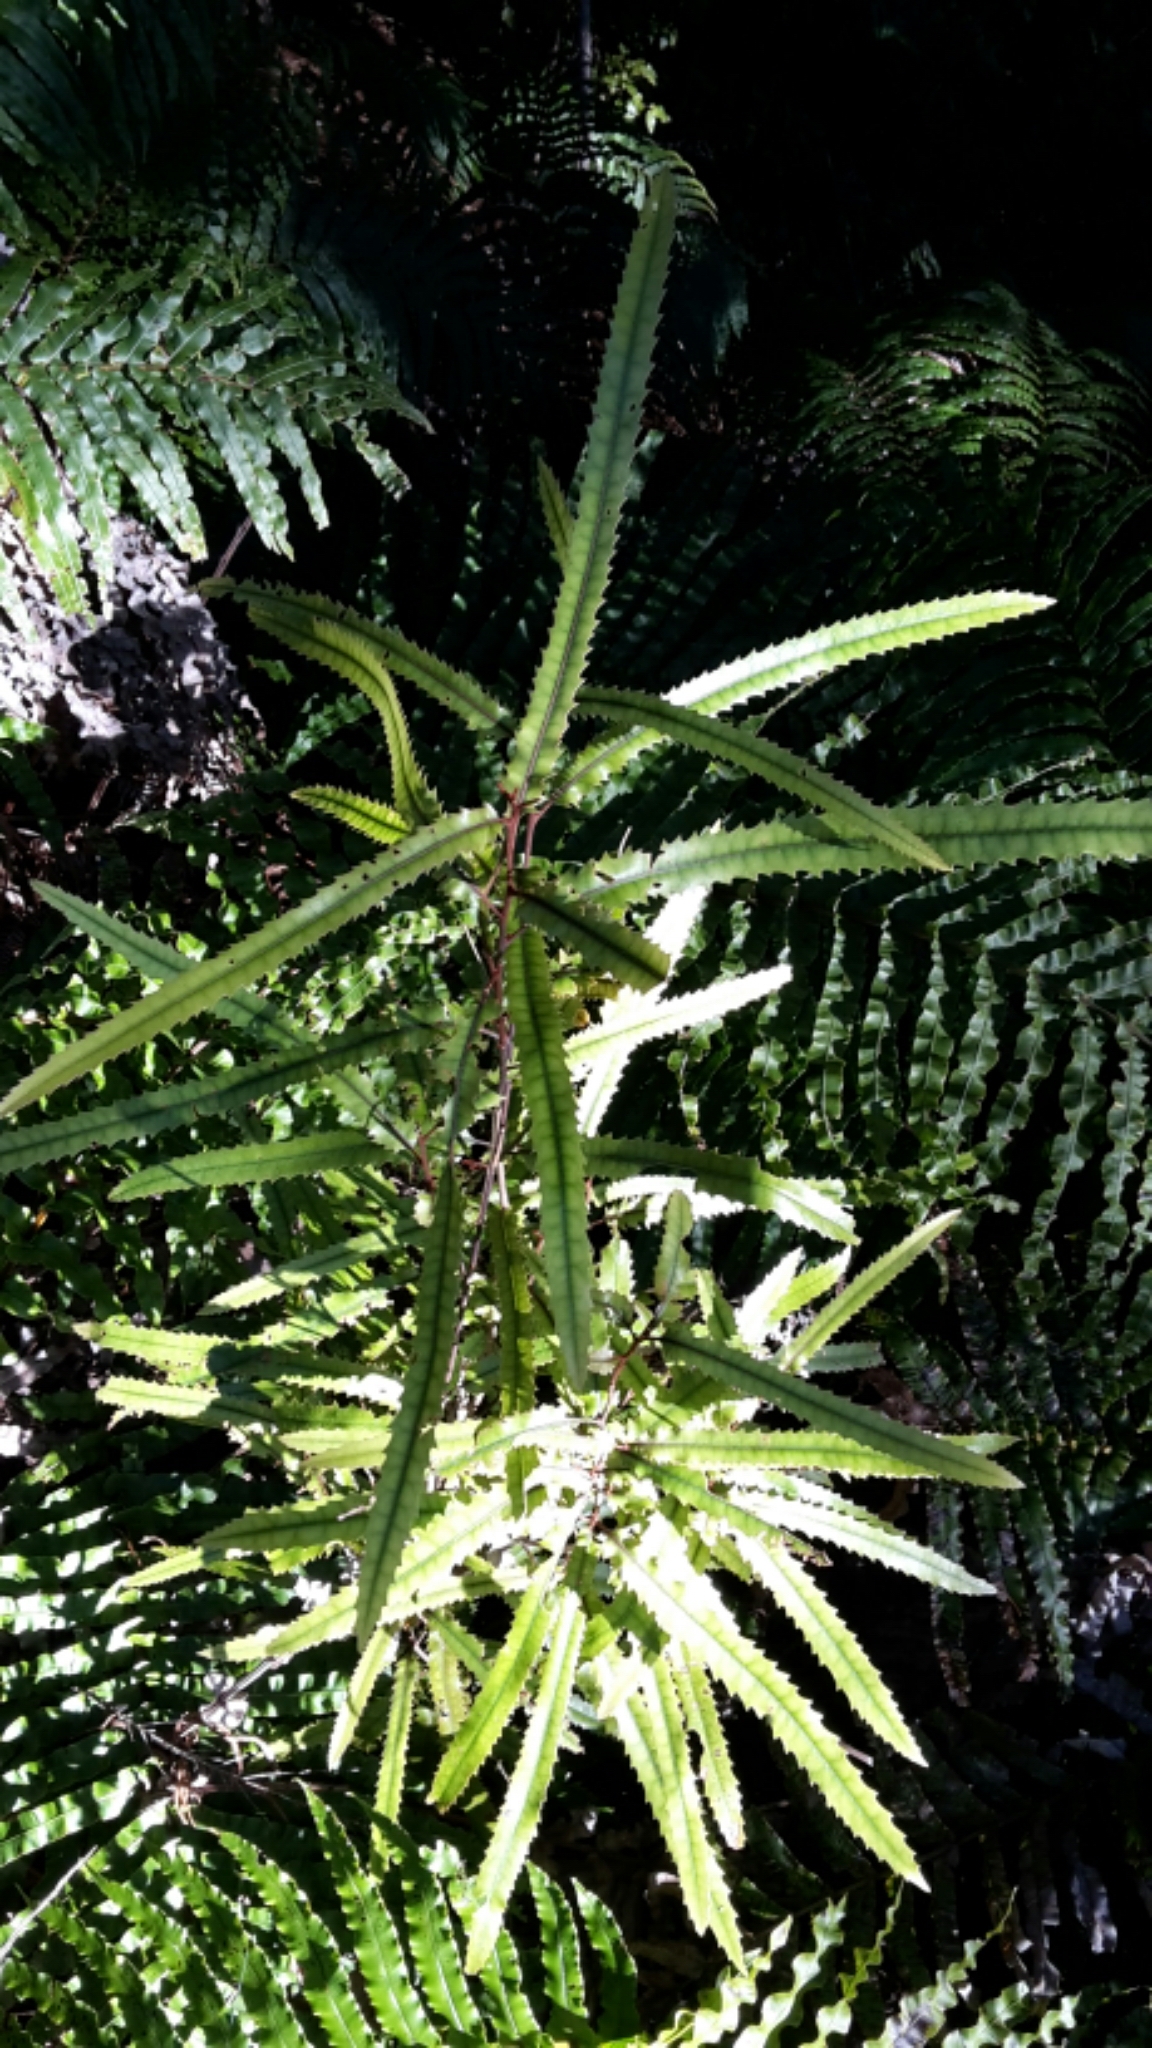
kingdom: Plantae
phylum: Tracheophyta
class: Magnoliopsida
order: Proteales
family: Proteaceae
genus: Knightia
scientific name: Knightia excelsa
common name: New zealand-honeysuckle
